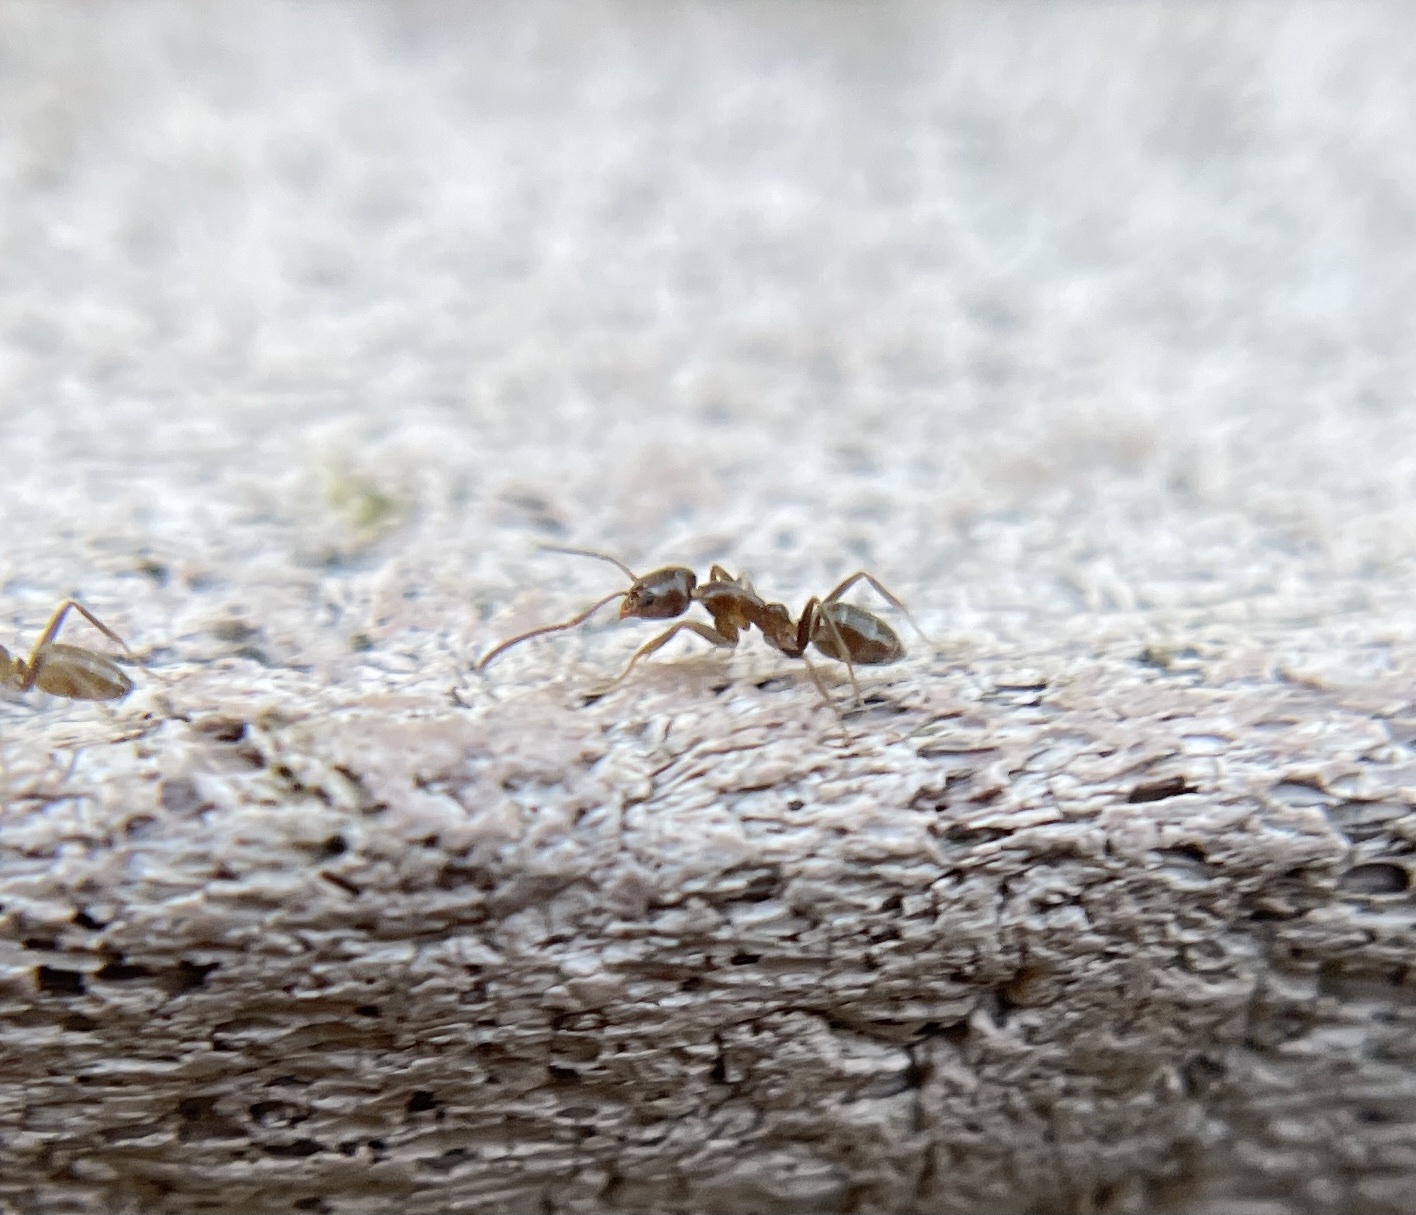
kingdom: Animalia
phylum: Arthropoda
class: Insecta
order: Hymenoptera
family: Formicidae
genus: Linepithema
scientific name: Linepithema humile
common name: Argentine ant
